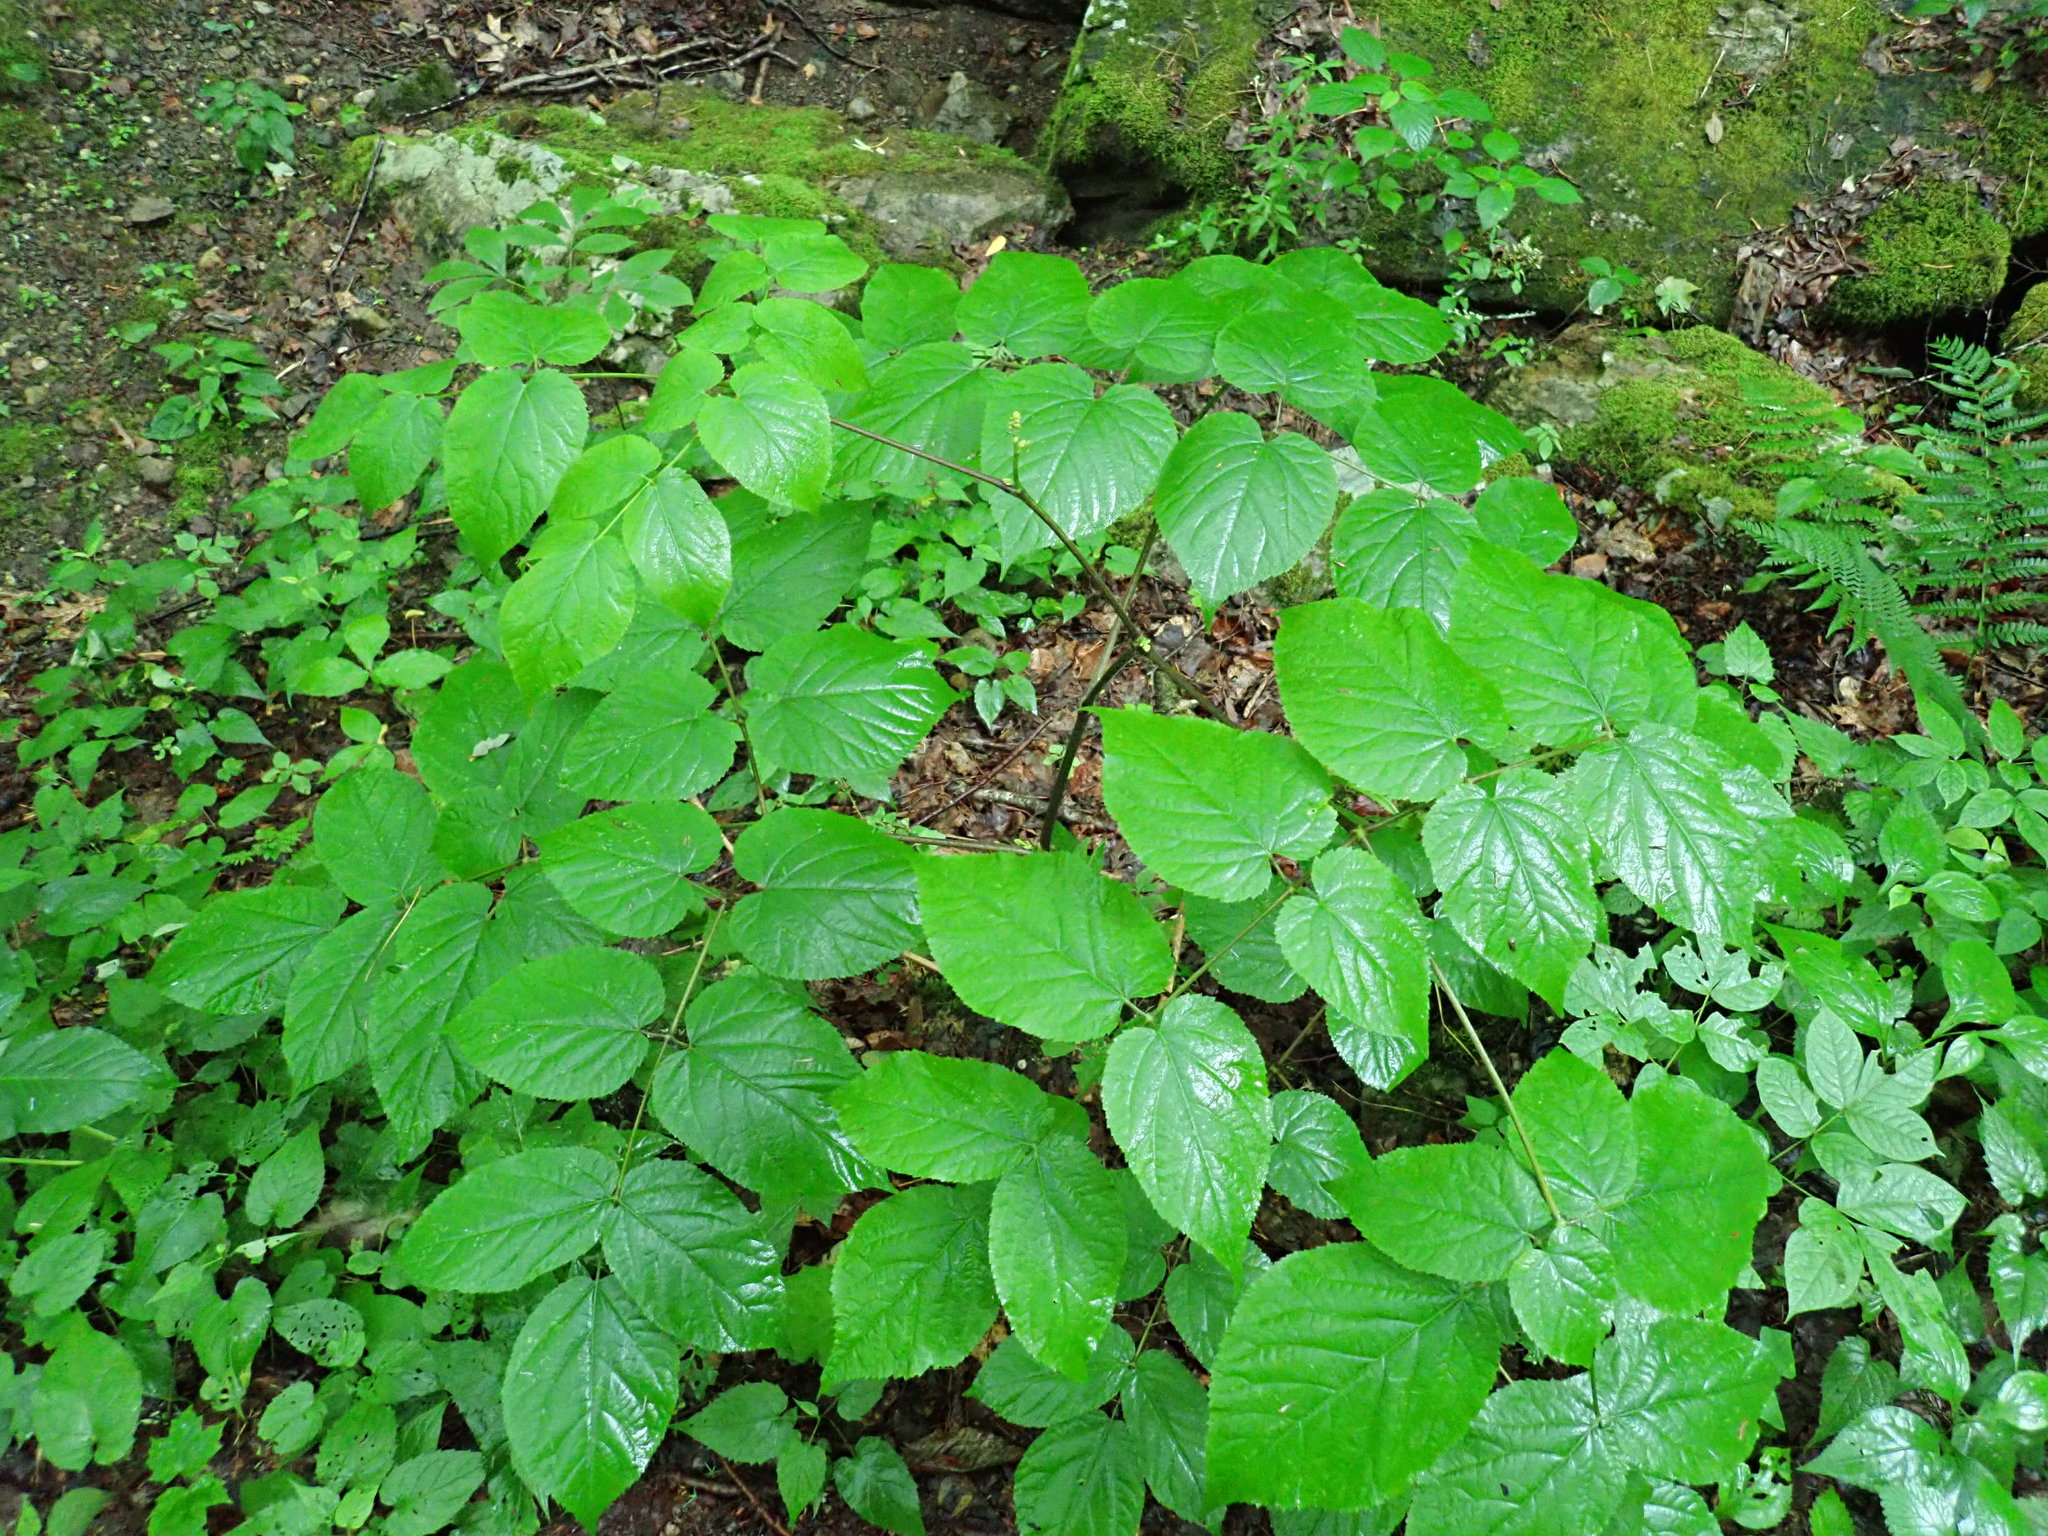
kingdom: Plantae
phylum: Tracheophyta
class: Magnoliopsida
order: Apiales
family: Araliaceae
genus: Aralia
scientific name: Aralia racemosa
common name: American-spikenard
